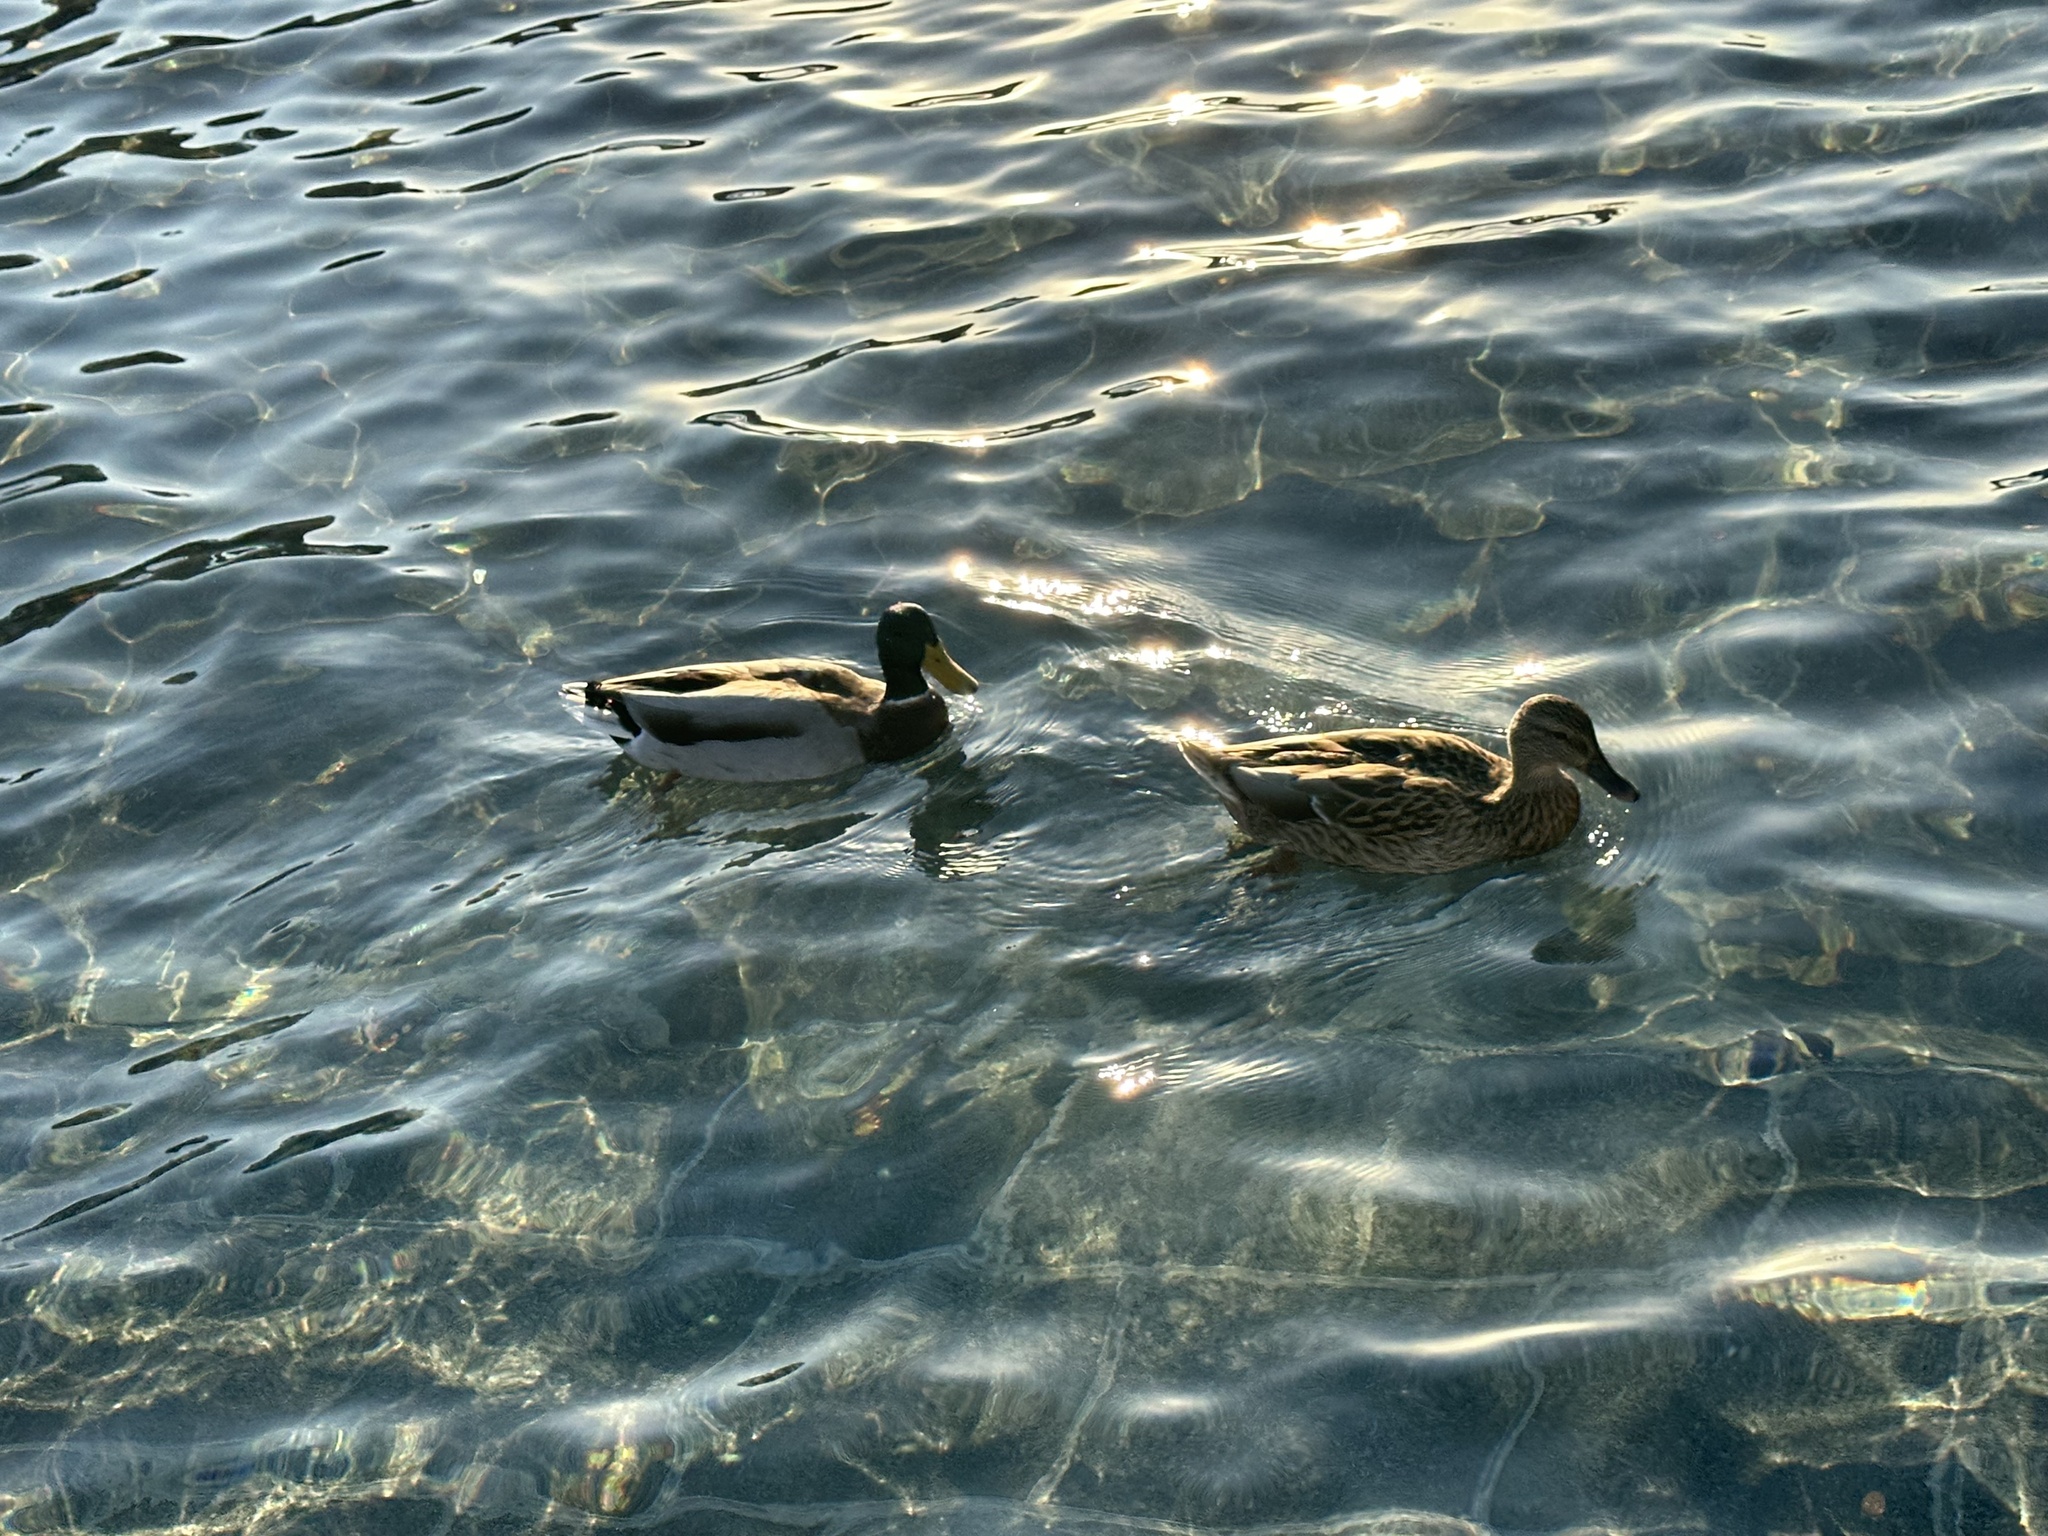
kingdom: Animalia
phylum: Chordata
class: Aves
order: Anseriformes
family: Anatidae
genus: Anas
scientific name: Anas platyrhynchos
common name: Mallard
